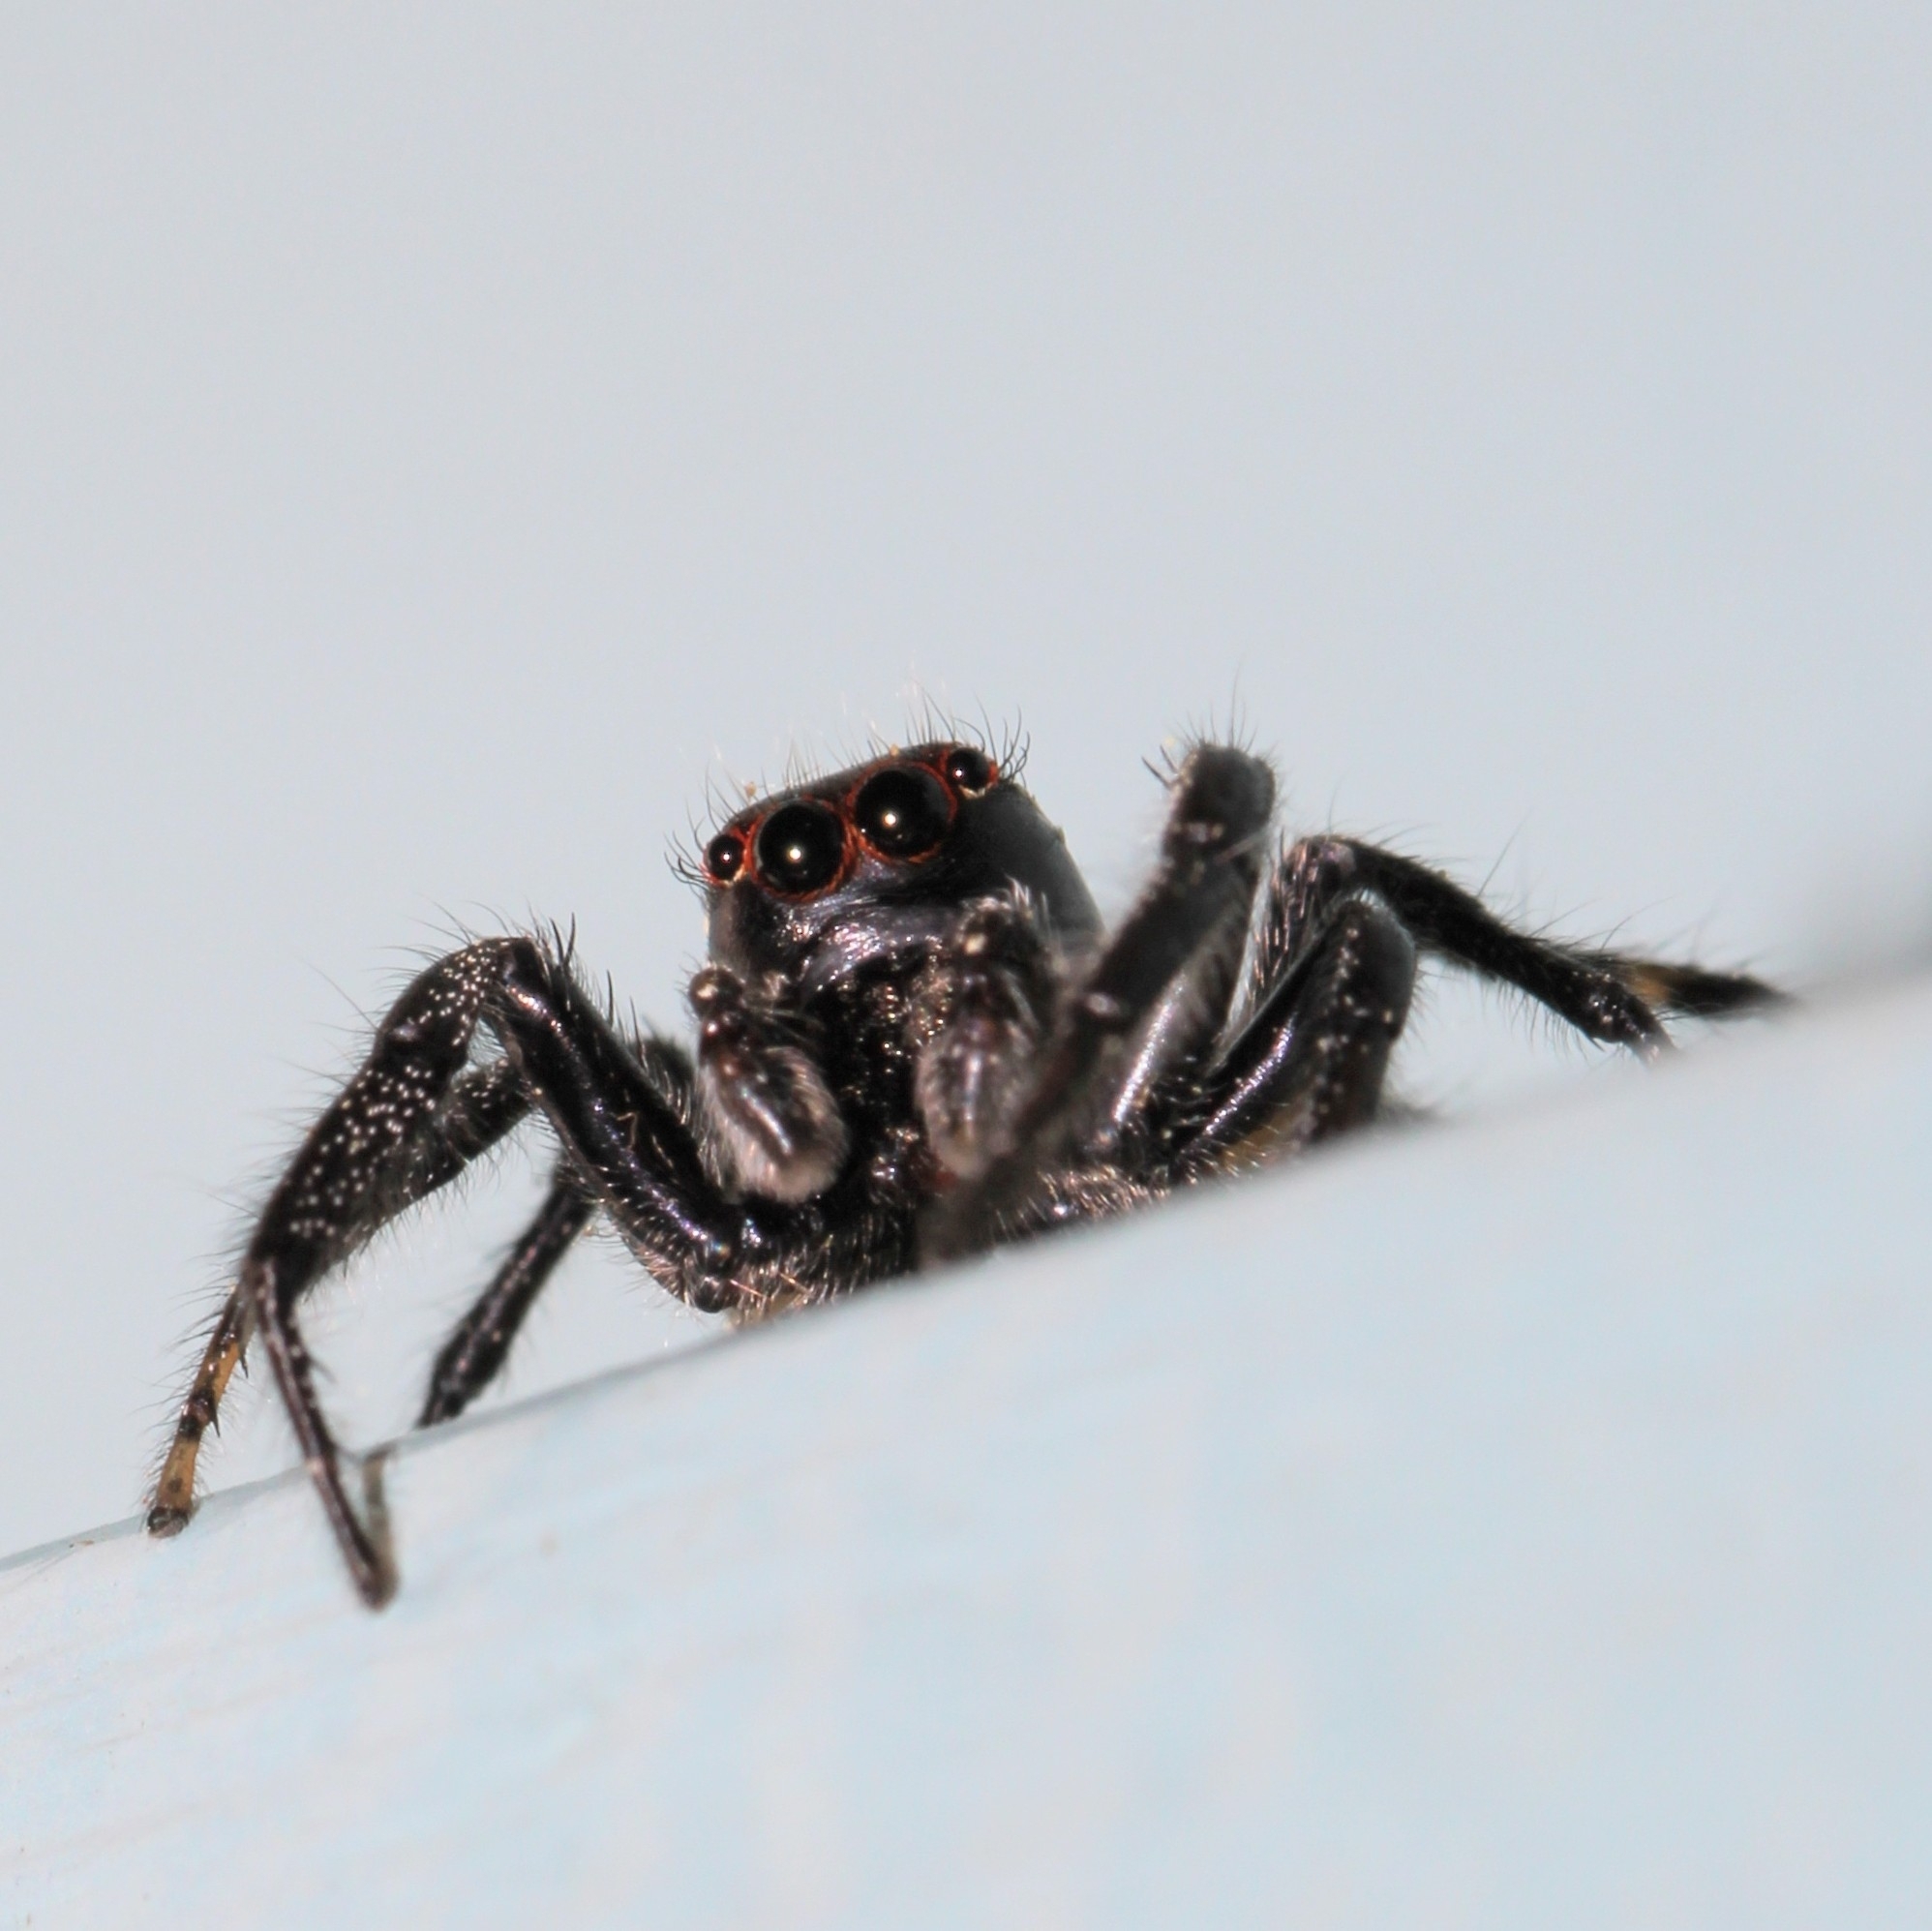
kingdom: Animalia
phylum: Arthropoda
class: Arachnida
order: Araneae
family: Salticidae
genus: Colonus
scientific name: Colonus sylvanus
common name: Jumping spiders
